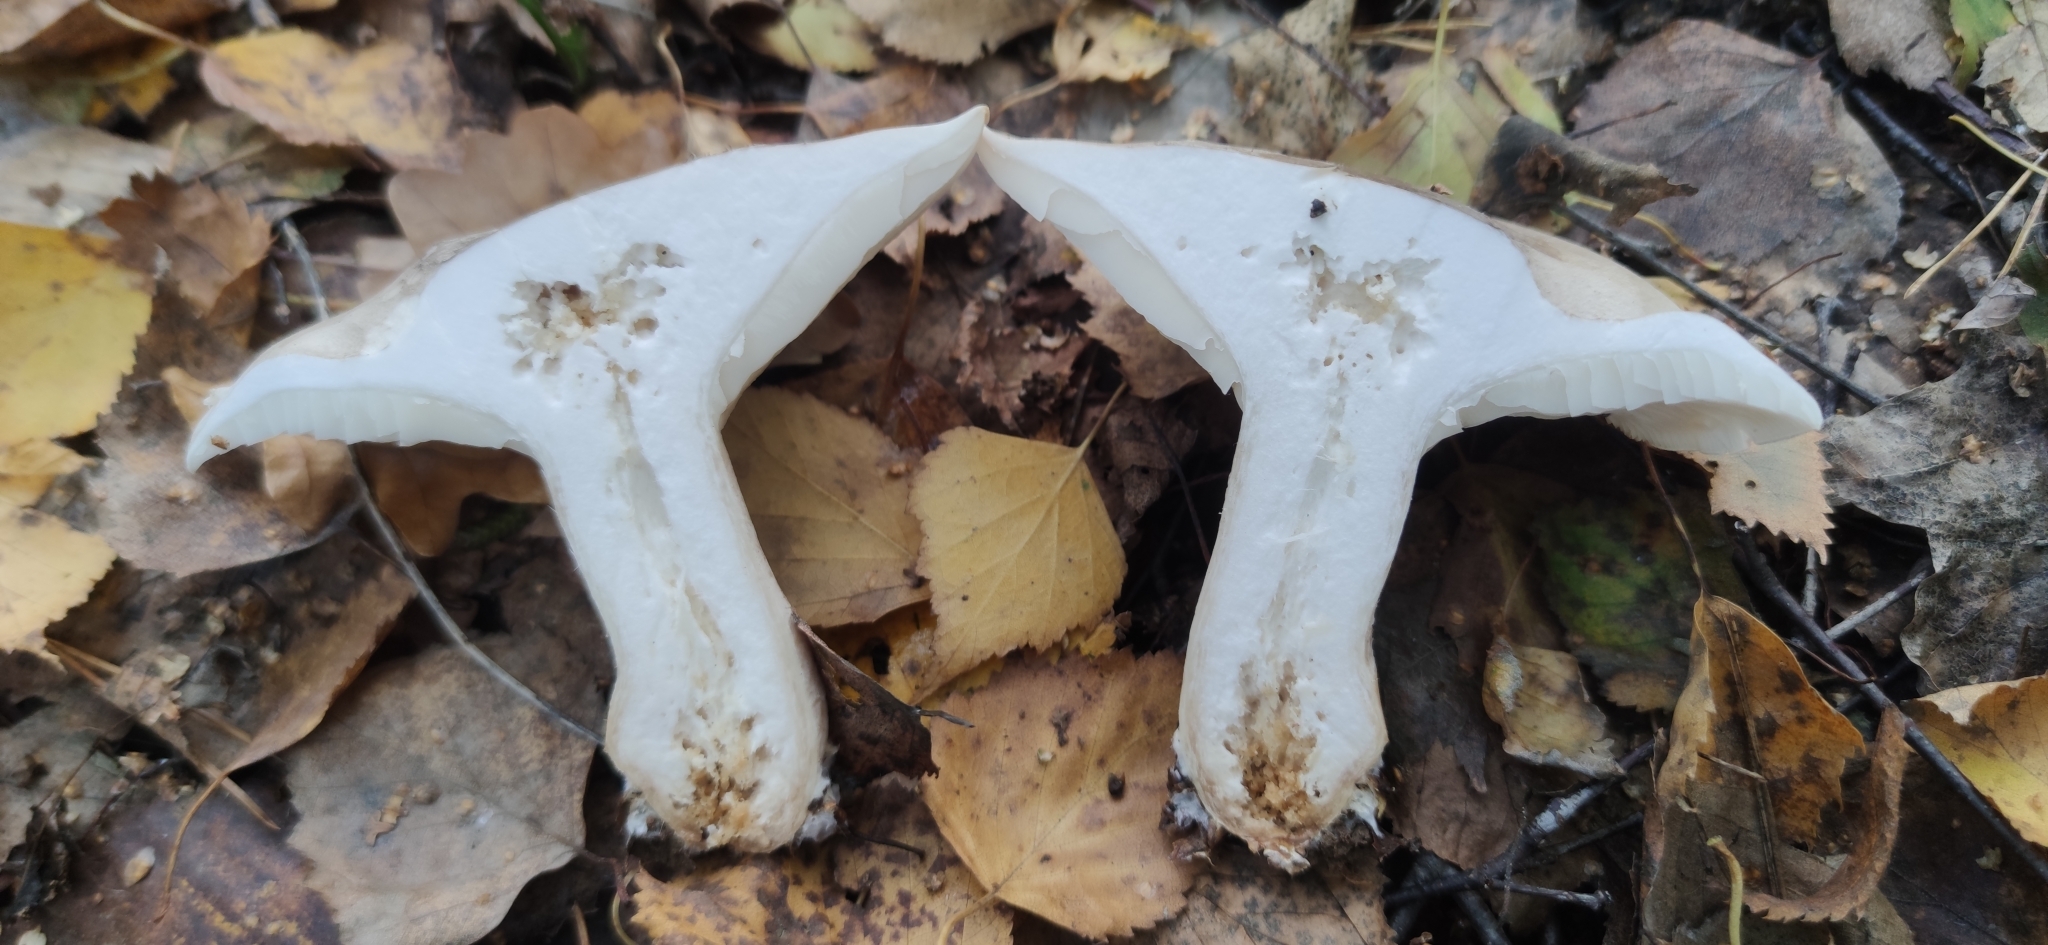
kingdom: Fungi
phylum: Basidiomycota
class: Agaricomycetes
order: Agaricales
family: Tricholomataceae
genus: Clitocybe
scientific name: Clitocybe nebularis
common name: Clouded agaric
